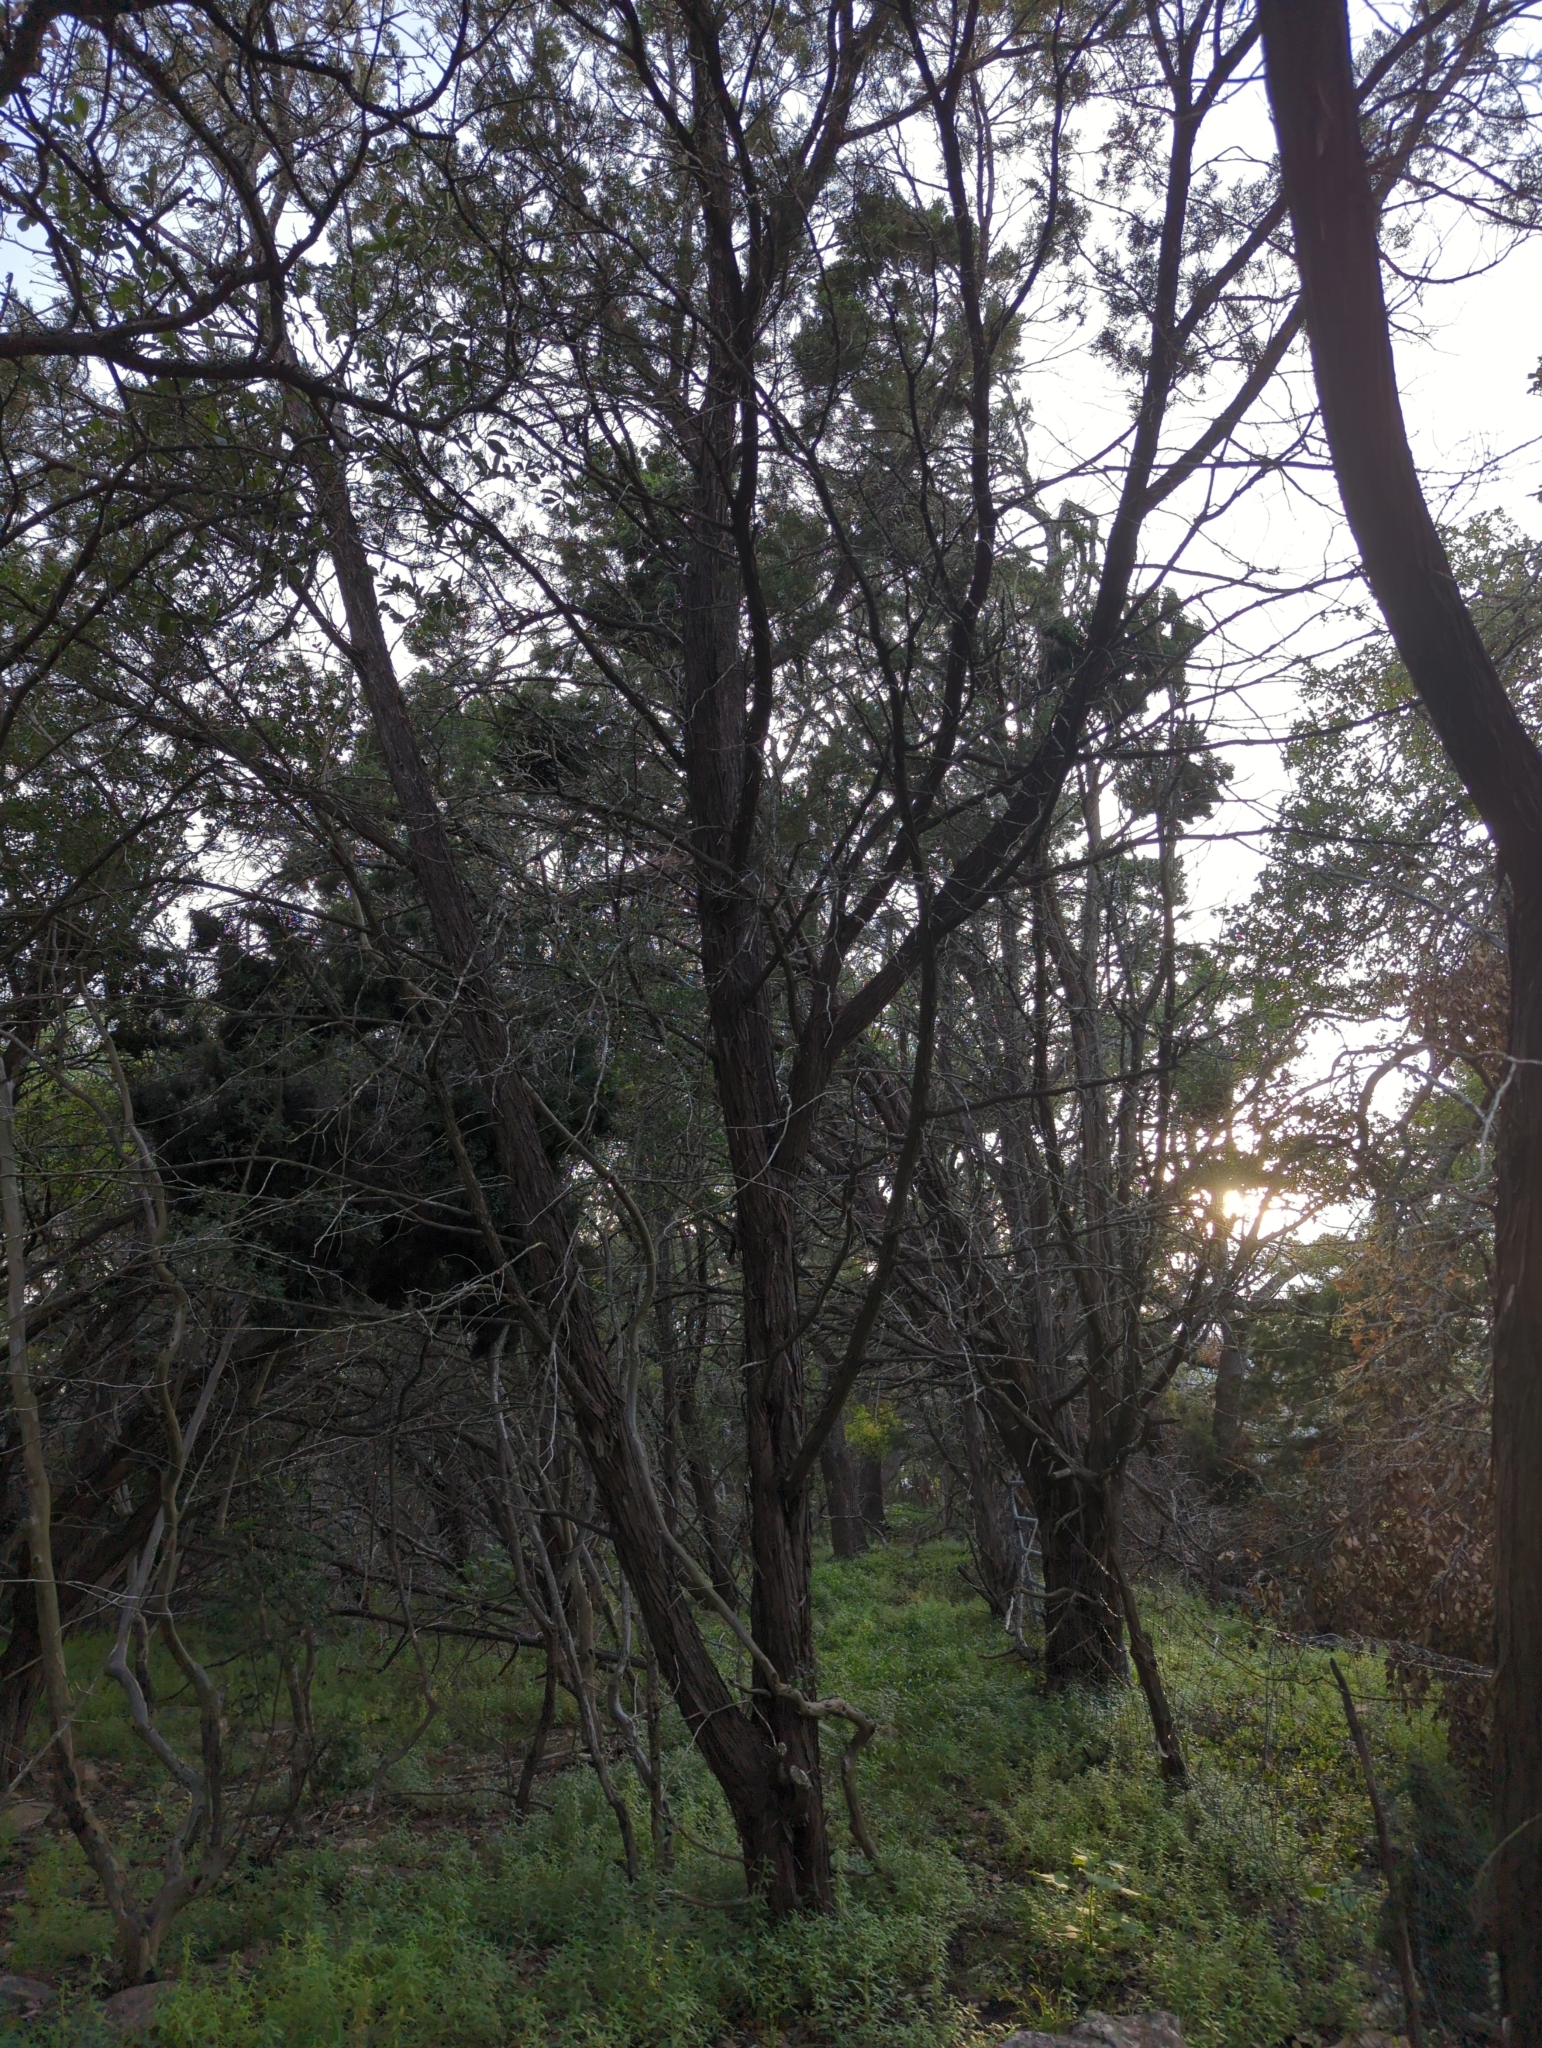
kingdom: Plantae
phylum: Tracheophyta
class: Pinopsida
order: Pinales
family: Cupressaceae
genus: Juniperus
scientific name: Juniperus ashei
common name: Mexican juniper
